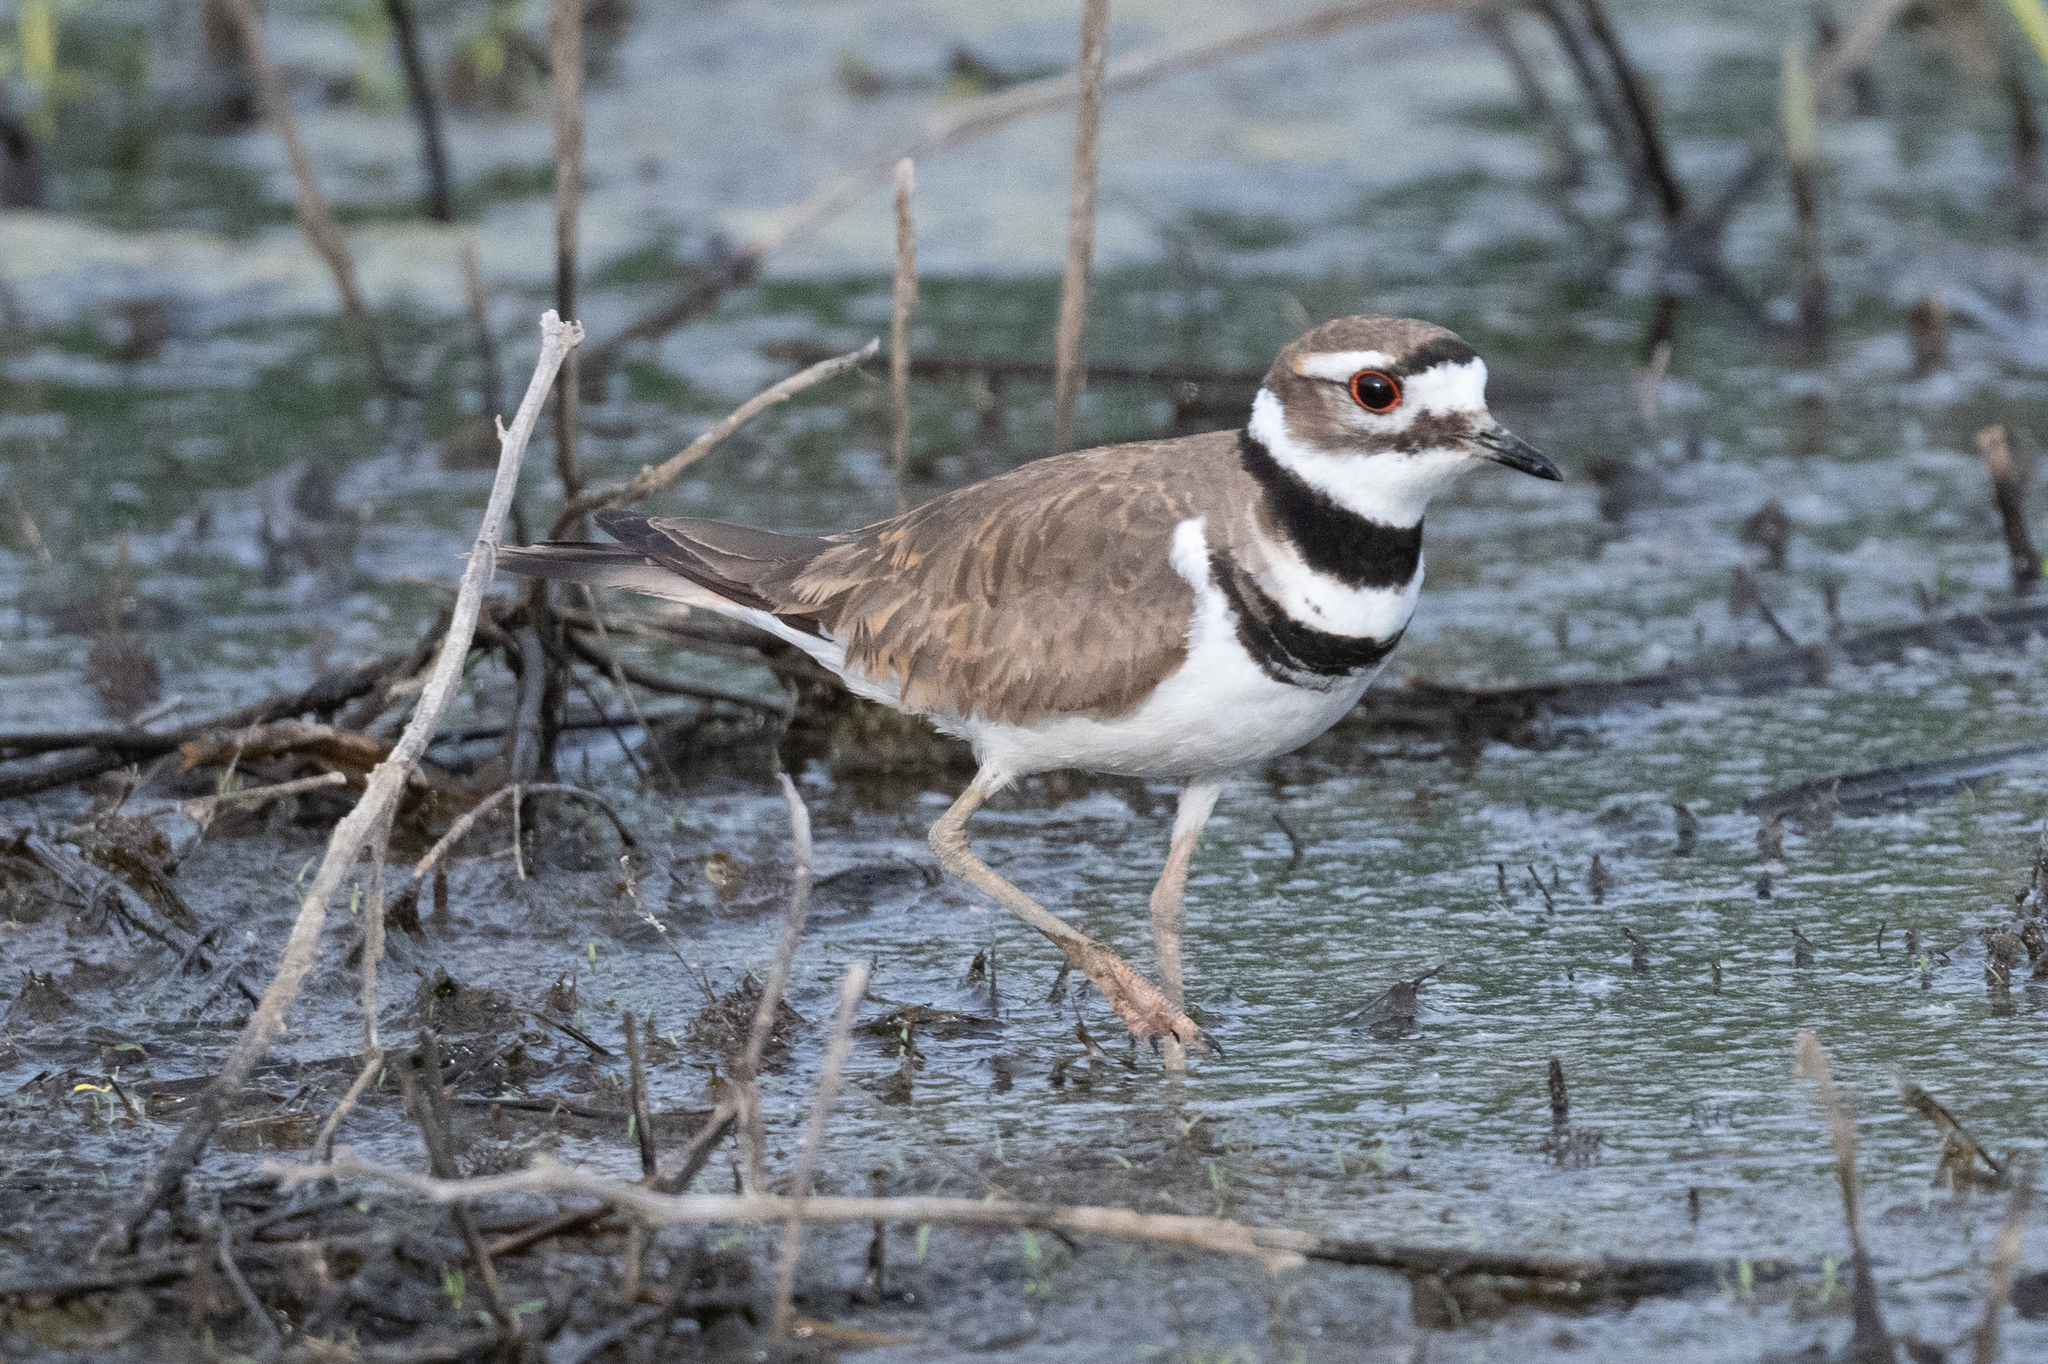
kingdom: Animalia
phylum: Chordata
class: Aves
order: Charadriiformes
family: Charadriidae
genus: Charadrius
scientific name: Charadrius vociferus
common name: Killdeer
